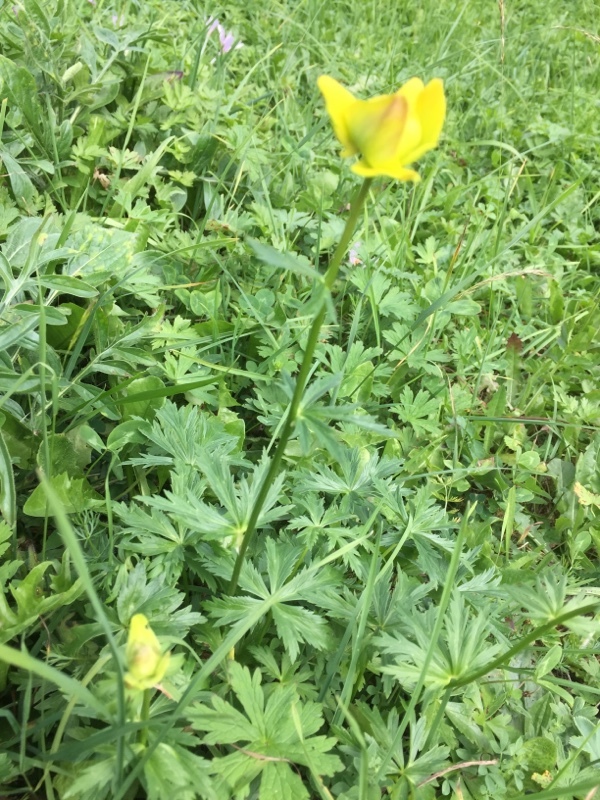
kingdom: Plantae
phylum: Tracheophyta
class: Magnoliopsida
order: Ranunculales
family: Ranunculaceae
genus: Trollius
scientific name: Trollius europaeus
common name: European globeflower
